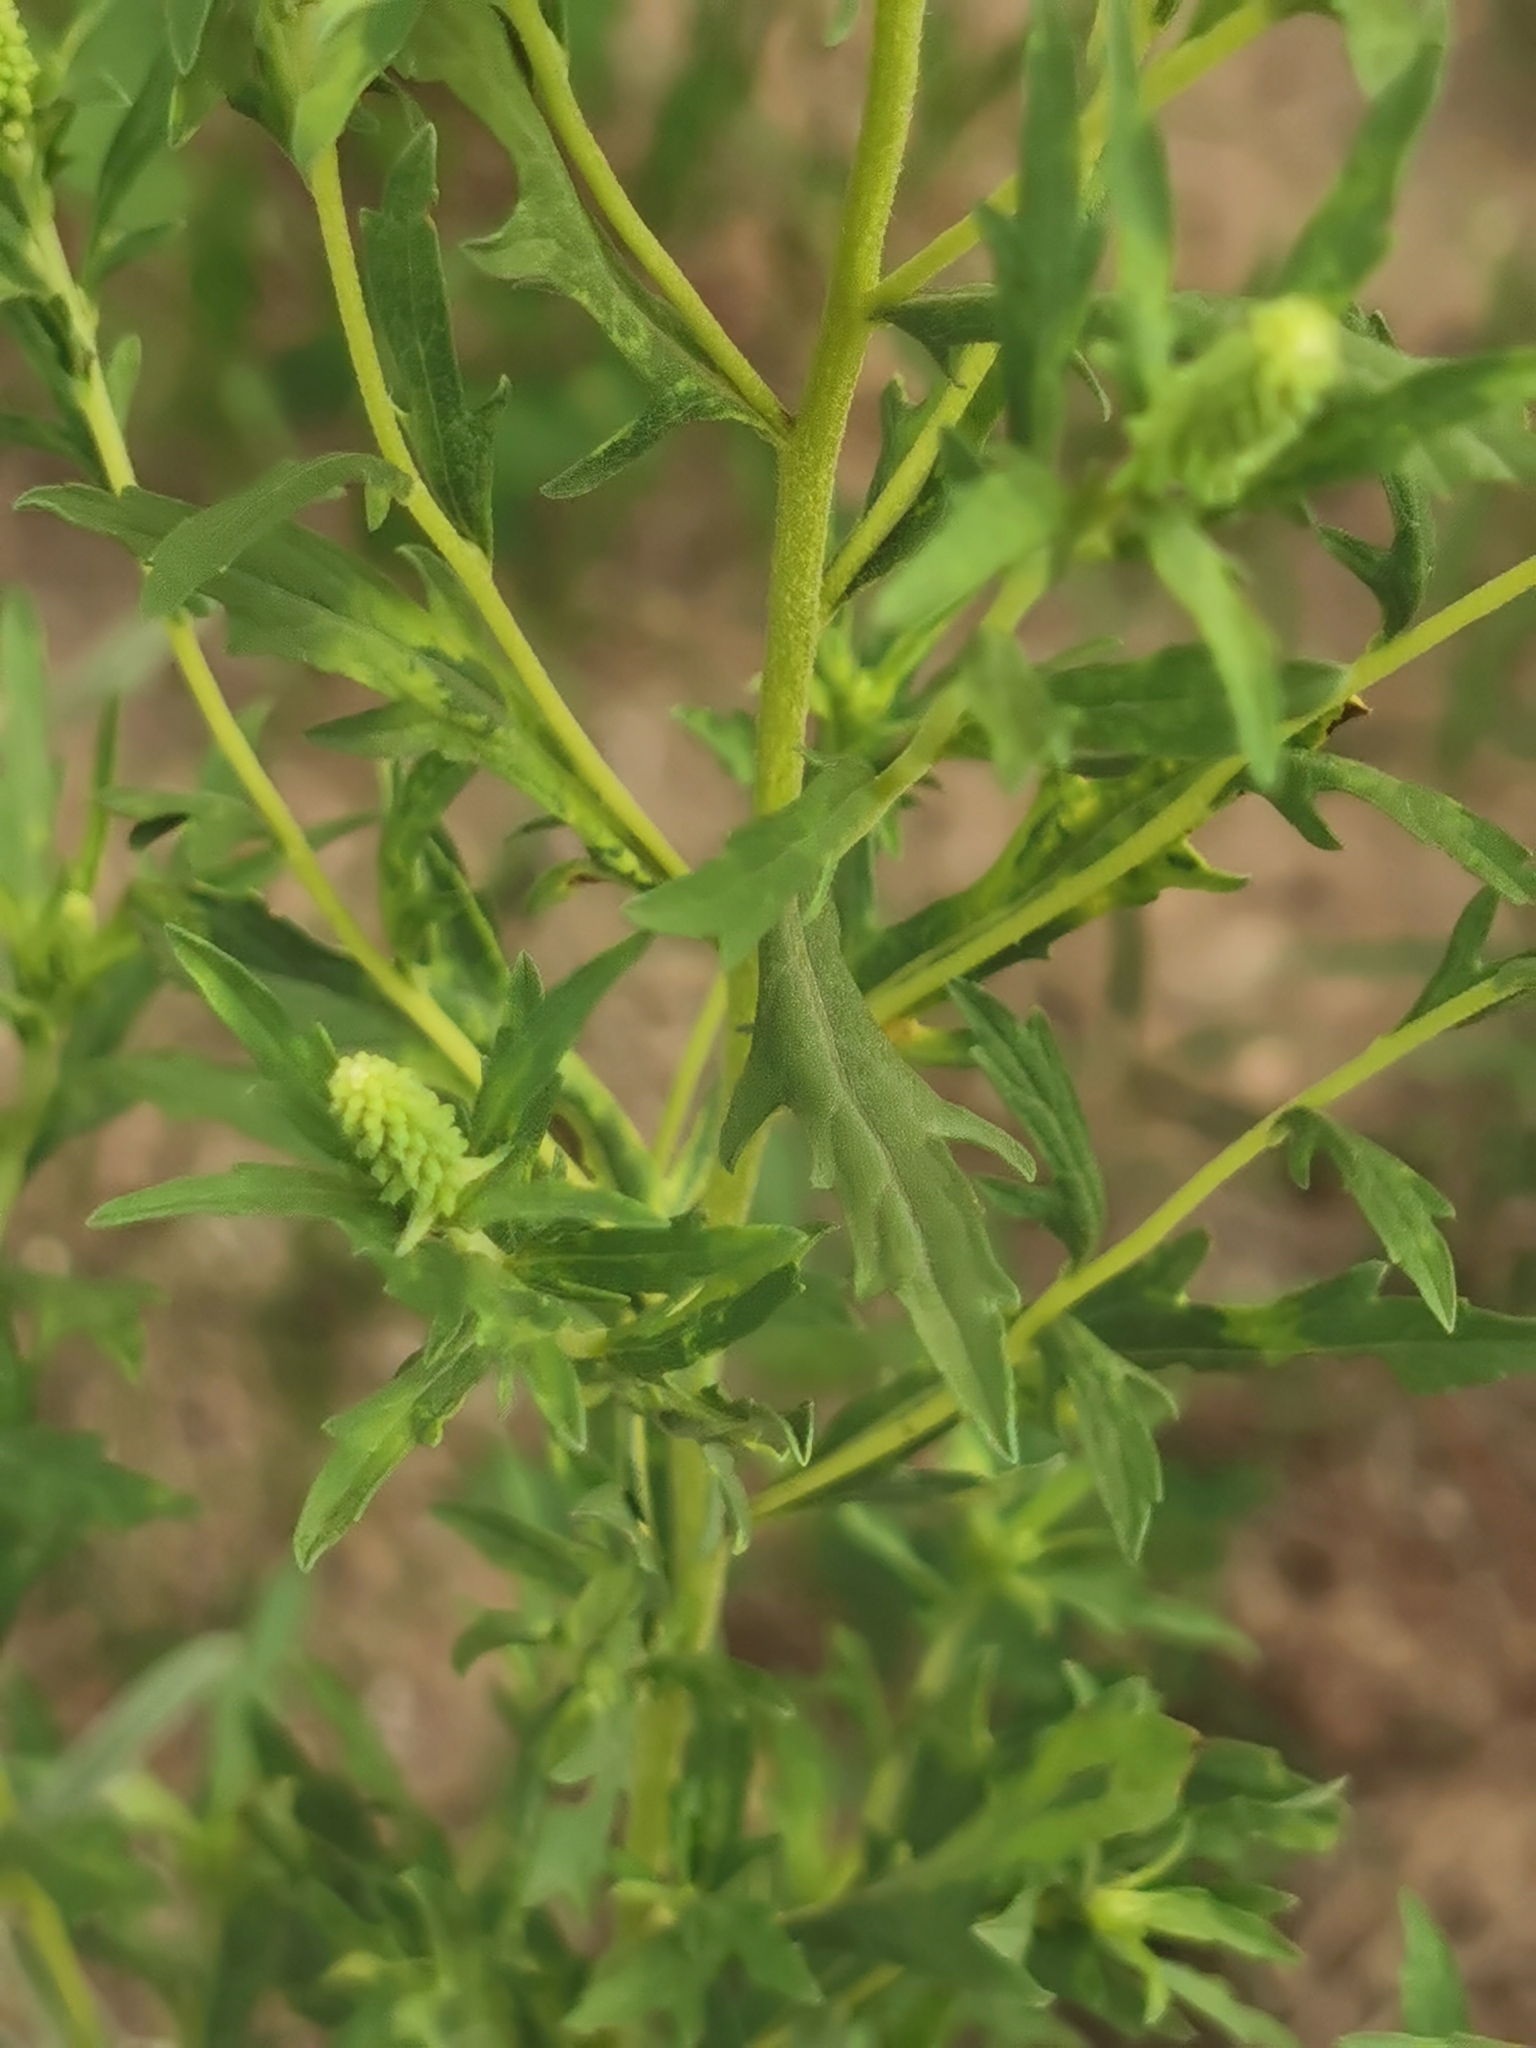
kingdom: Plantae
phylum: Tracheophyta
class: Magnoliopsida
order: Asterales
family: Asteraceae
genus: Ambrosia
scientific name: Ambrosia cumanensis
